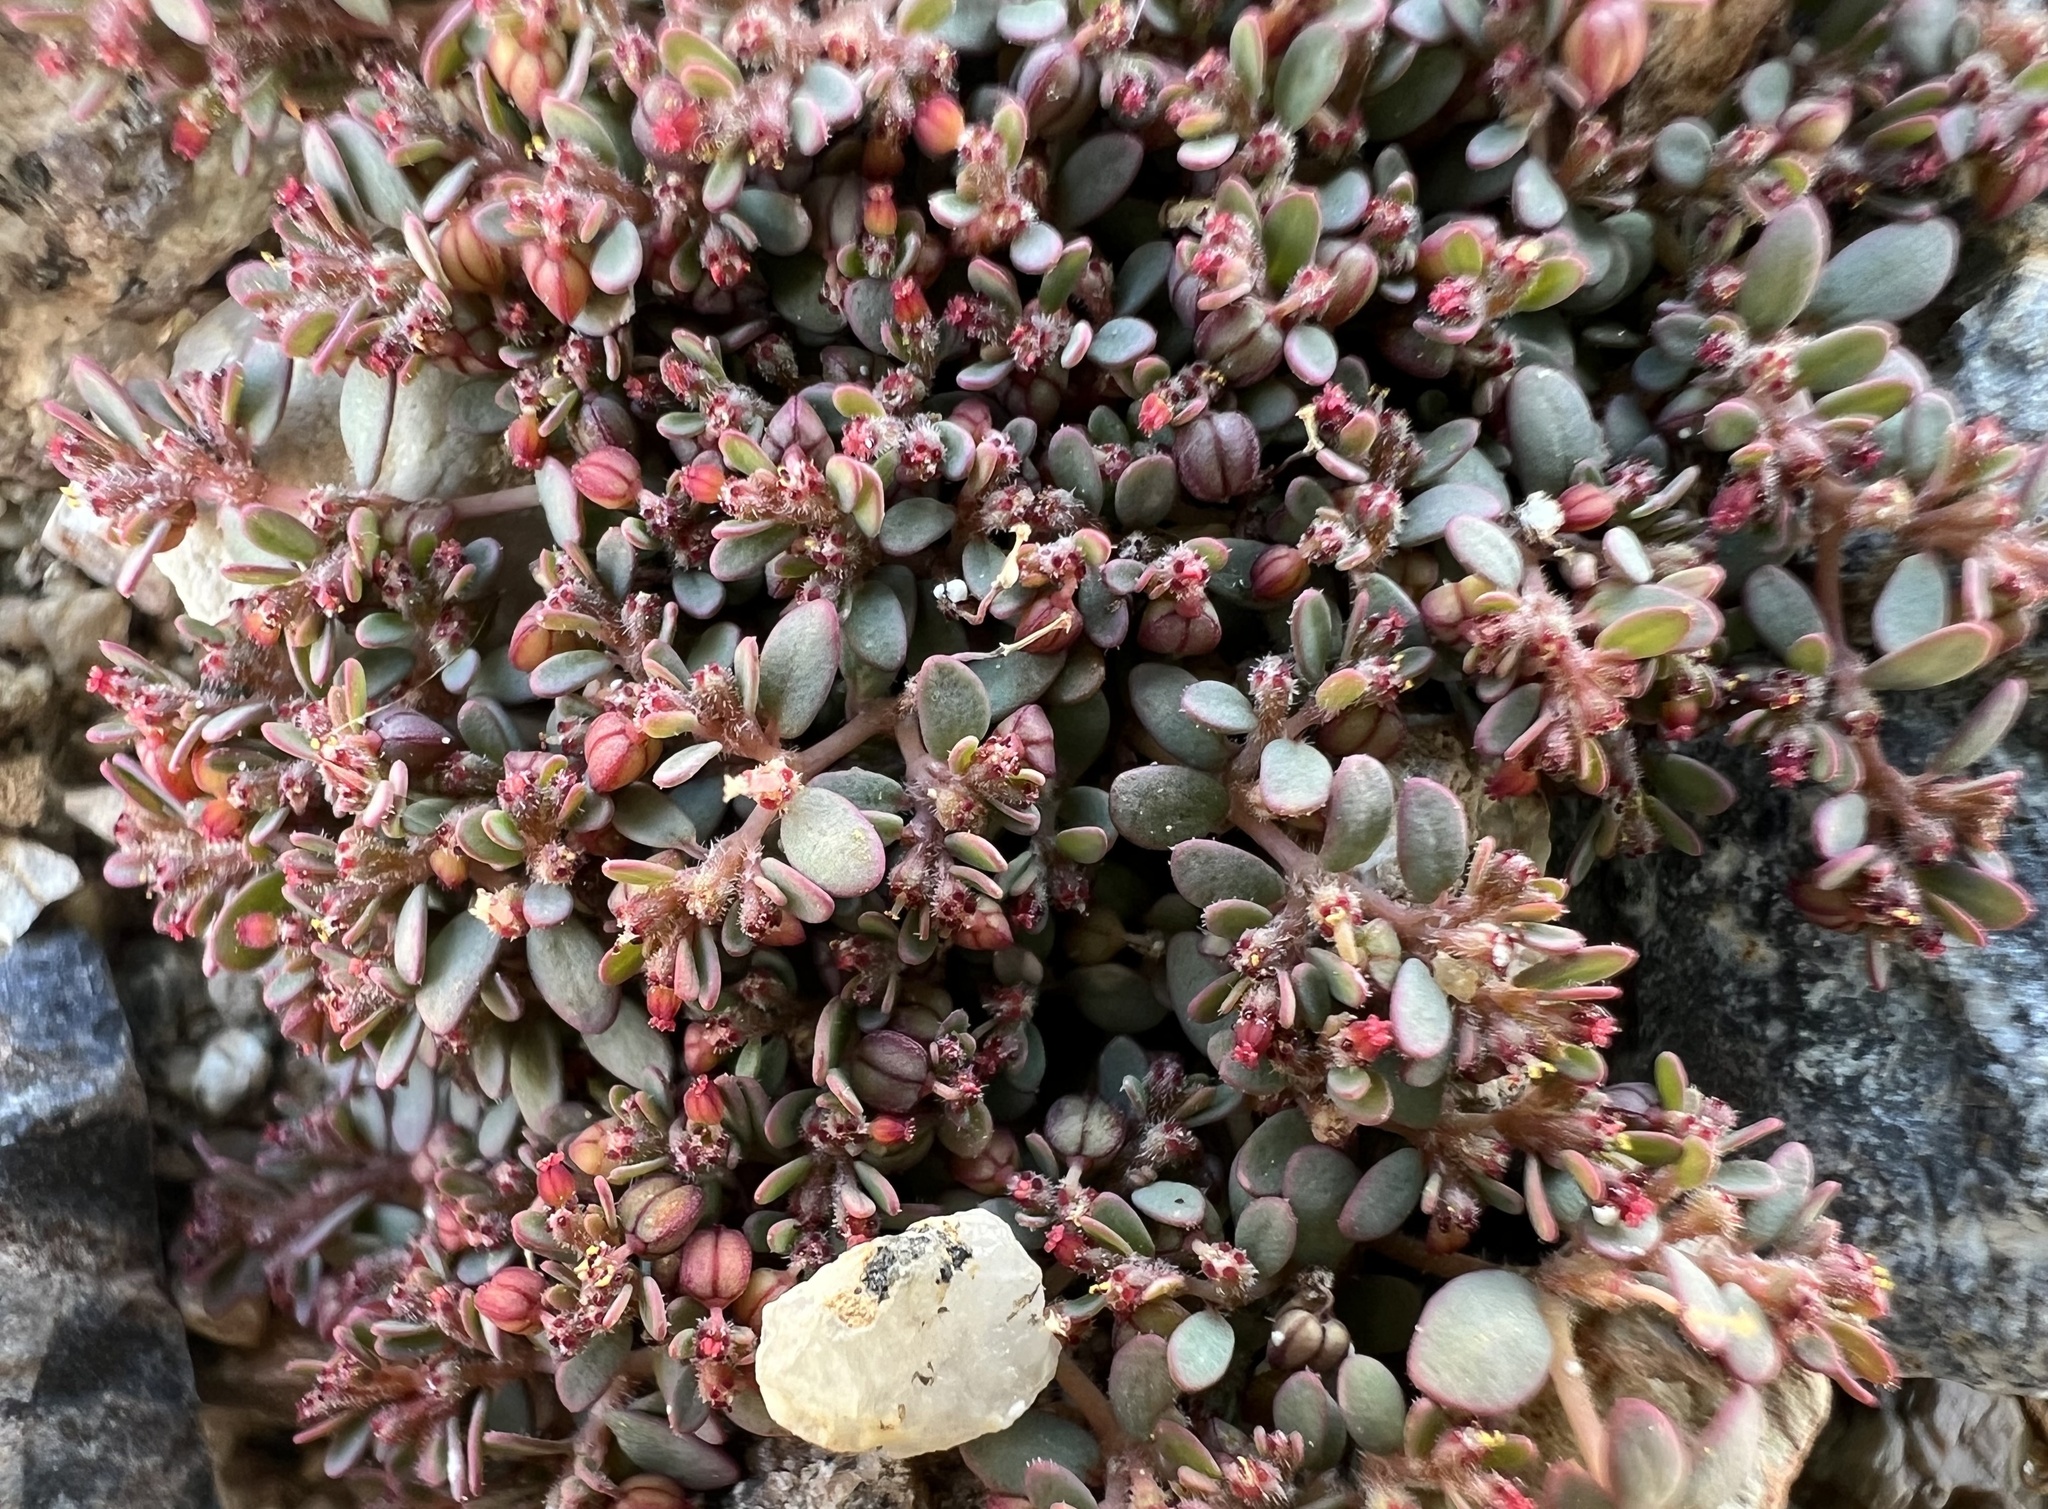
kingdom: Plantae
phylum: Tracheophyta
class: Magnoliopsida
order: Malpighiales
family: Euphorbiaceae
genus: Euphorbia
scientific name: Euphorbia micromera
